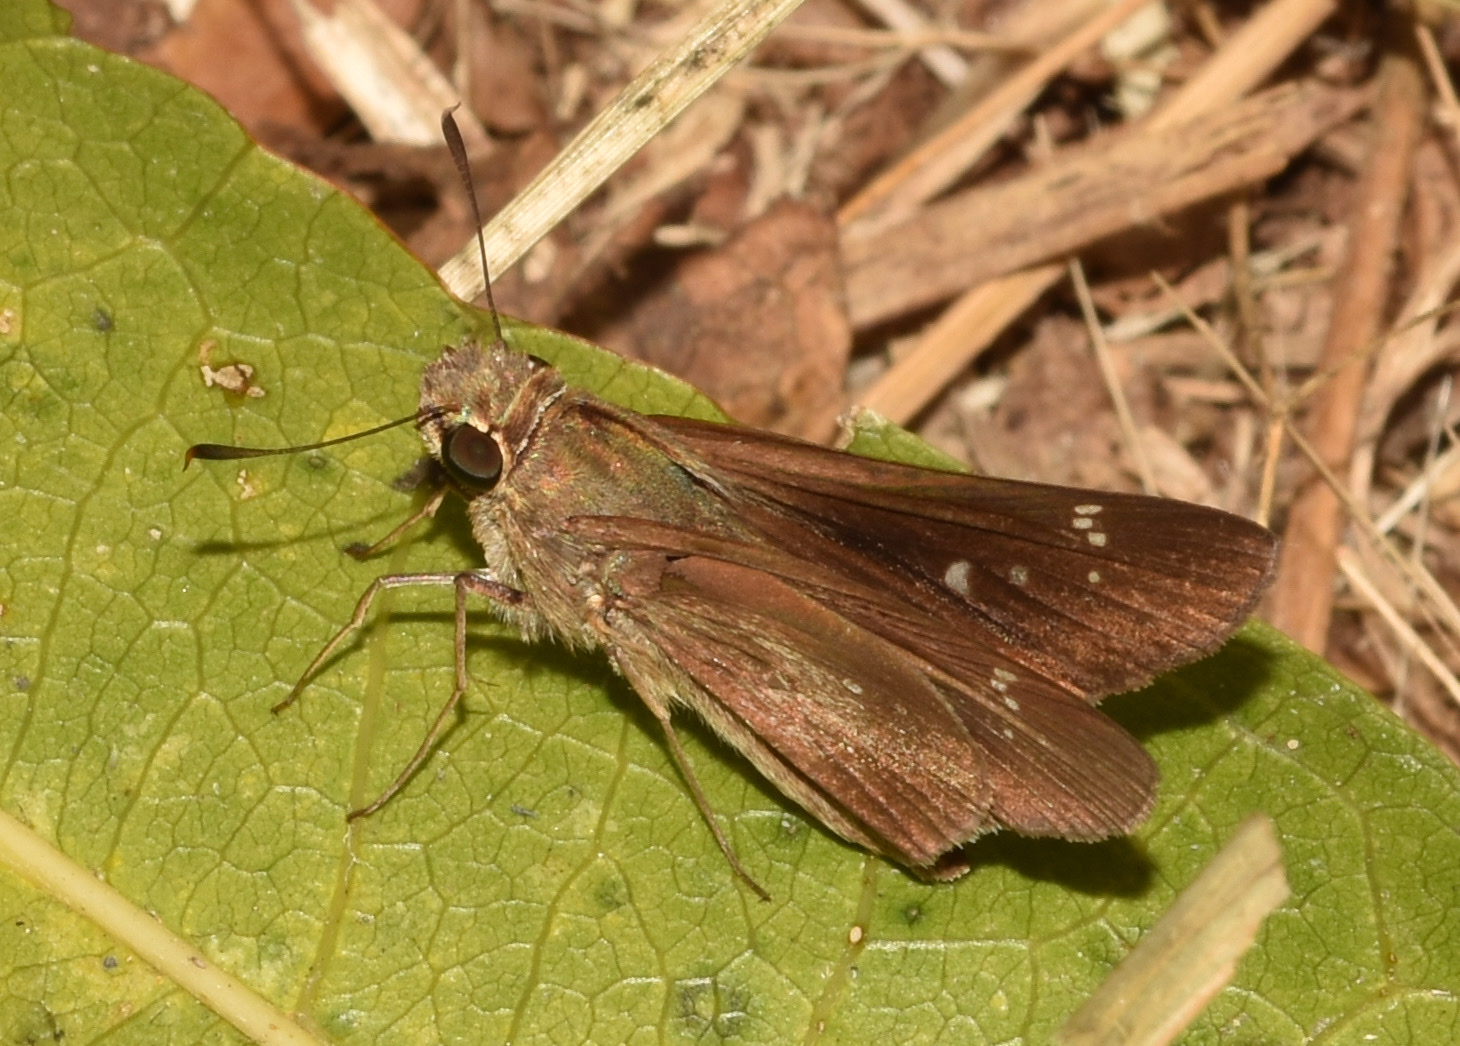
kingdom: Animalia
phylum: Arthropoda
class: Insecta
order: Lepidoptera
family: Hesperiidae
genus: Pelopidas
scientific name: Pelopidas mathias
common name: Black-branded swift
